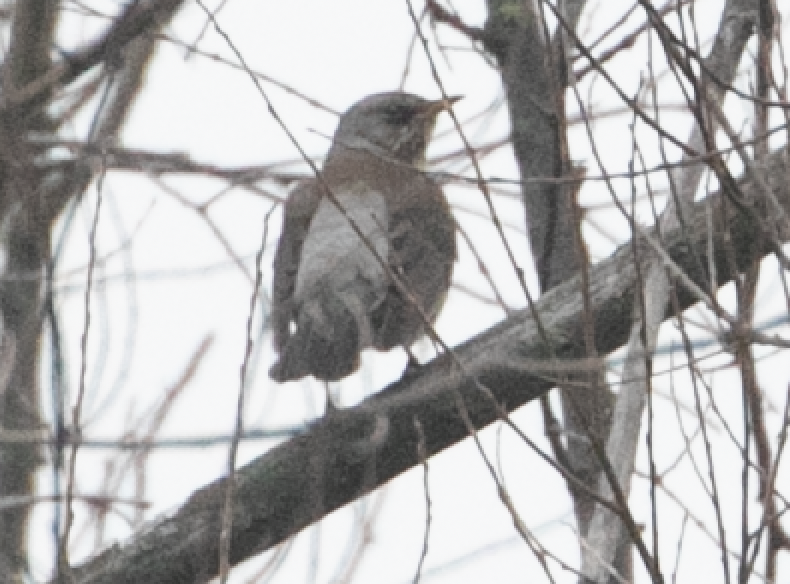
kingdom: Animalia
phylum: Chordata
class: Aves
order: Passeriformes
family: Turdidae
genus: Turdus
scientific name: Turdus pilaris
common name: Fieldfare
